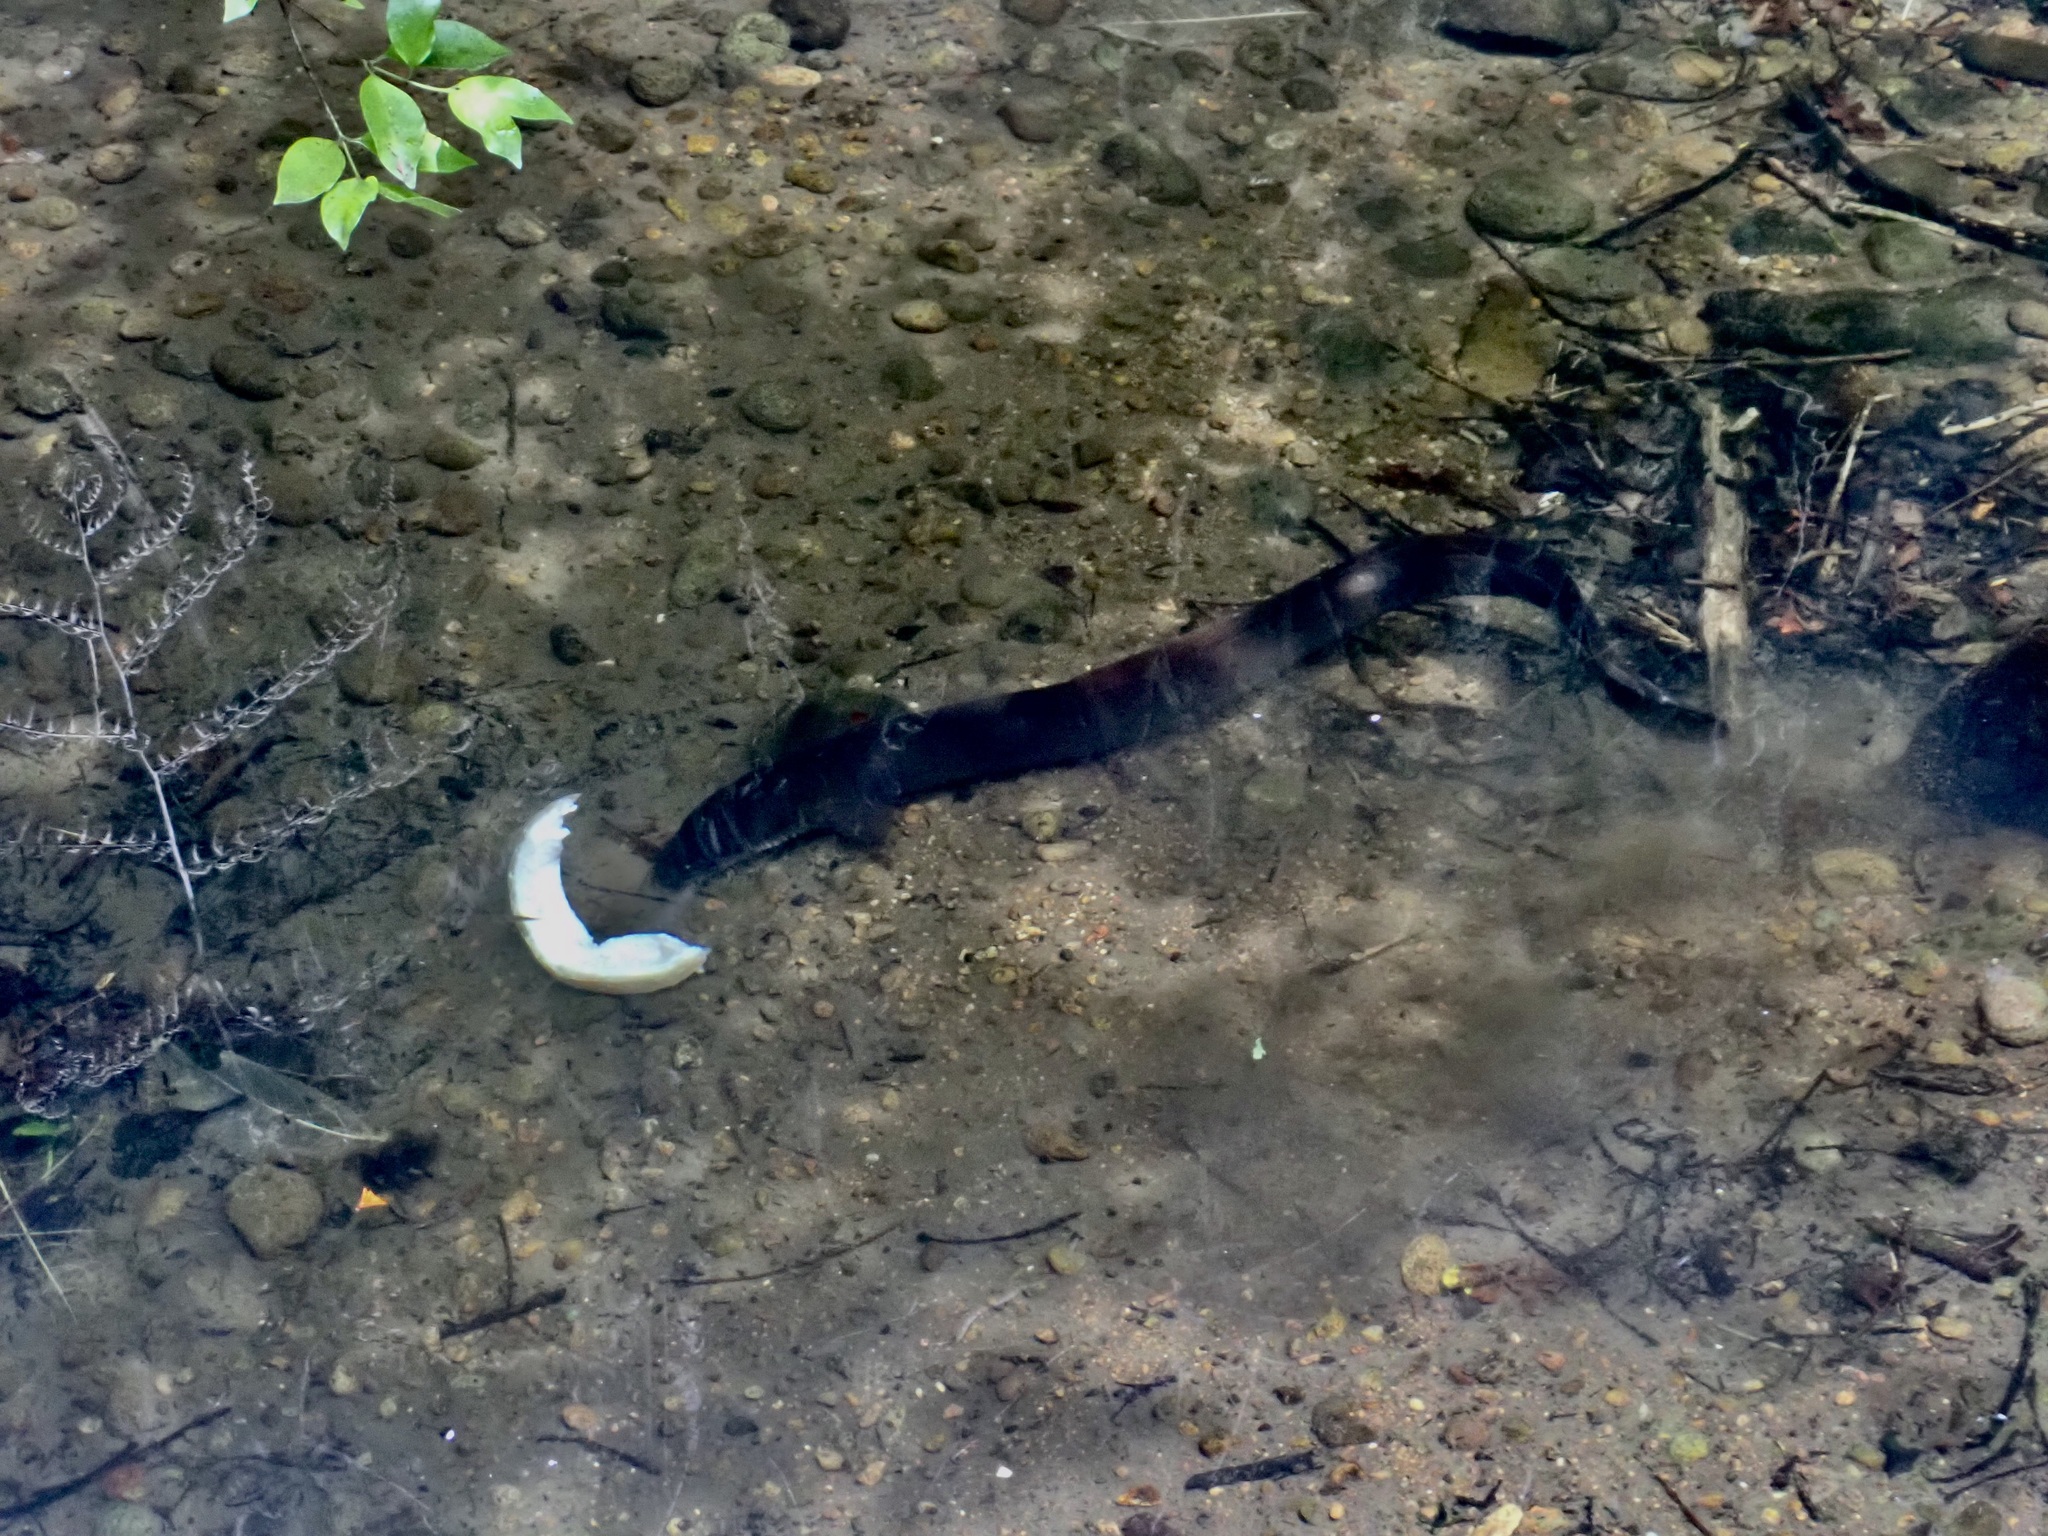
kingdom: Animalia
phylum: Chordata
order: Anguilliformes
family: Anguillidae
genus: Anguilla
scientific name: Anguilla dieffenbachii
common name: New zealand longfin eel
